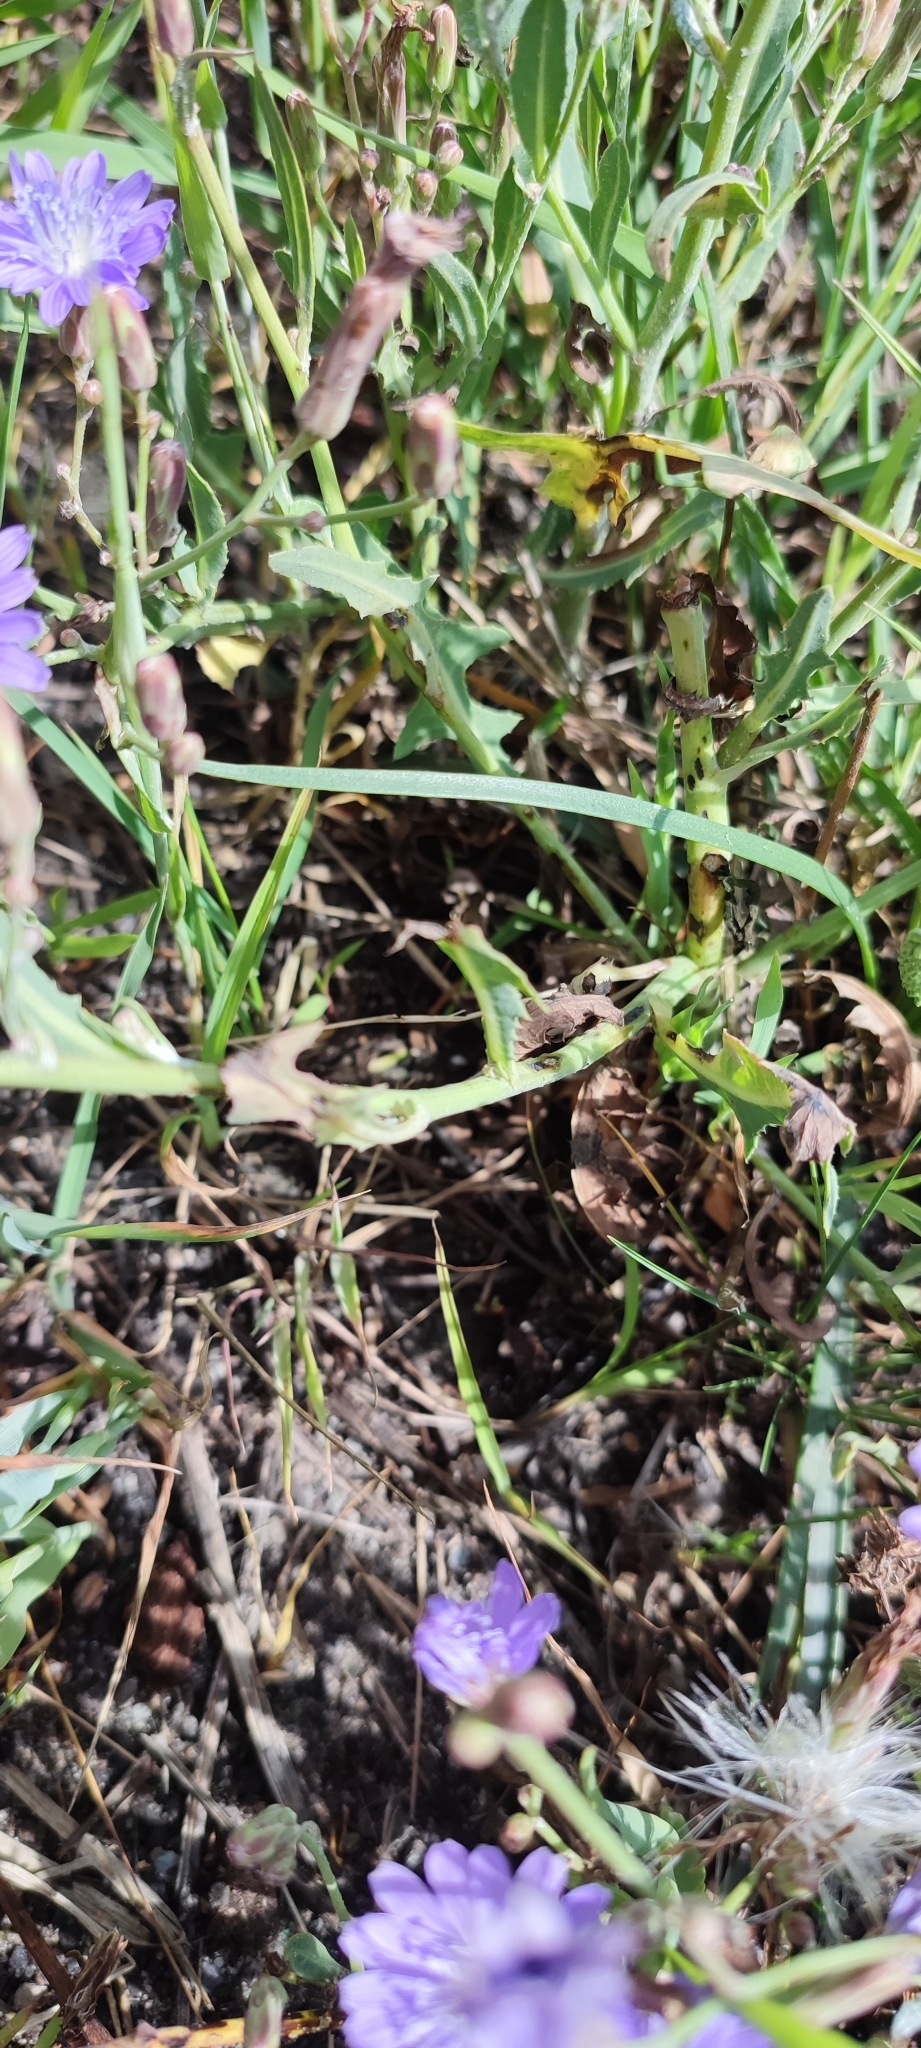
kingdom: Plantae
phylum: Tracheophyta
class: Magnoliopsida
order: Asterales
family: Asteraceae
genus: Lactuca
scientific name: Lactuca tatarica
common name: Blue lettuce
